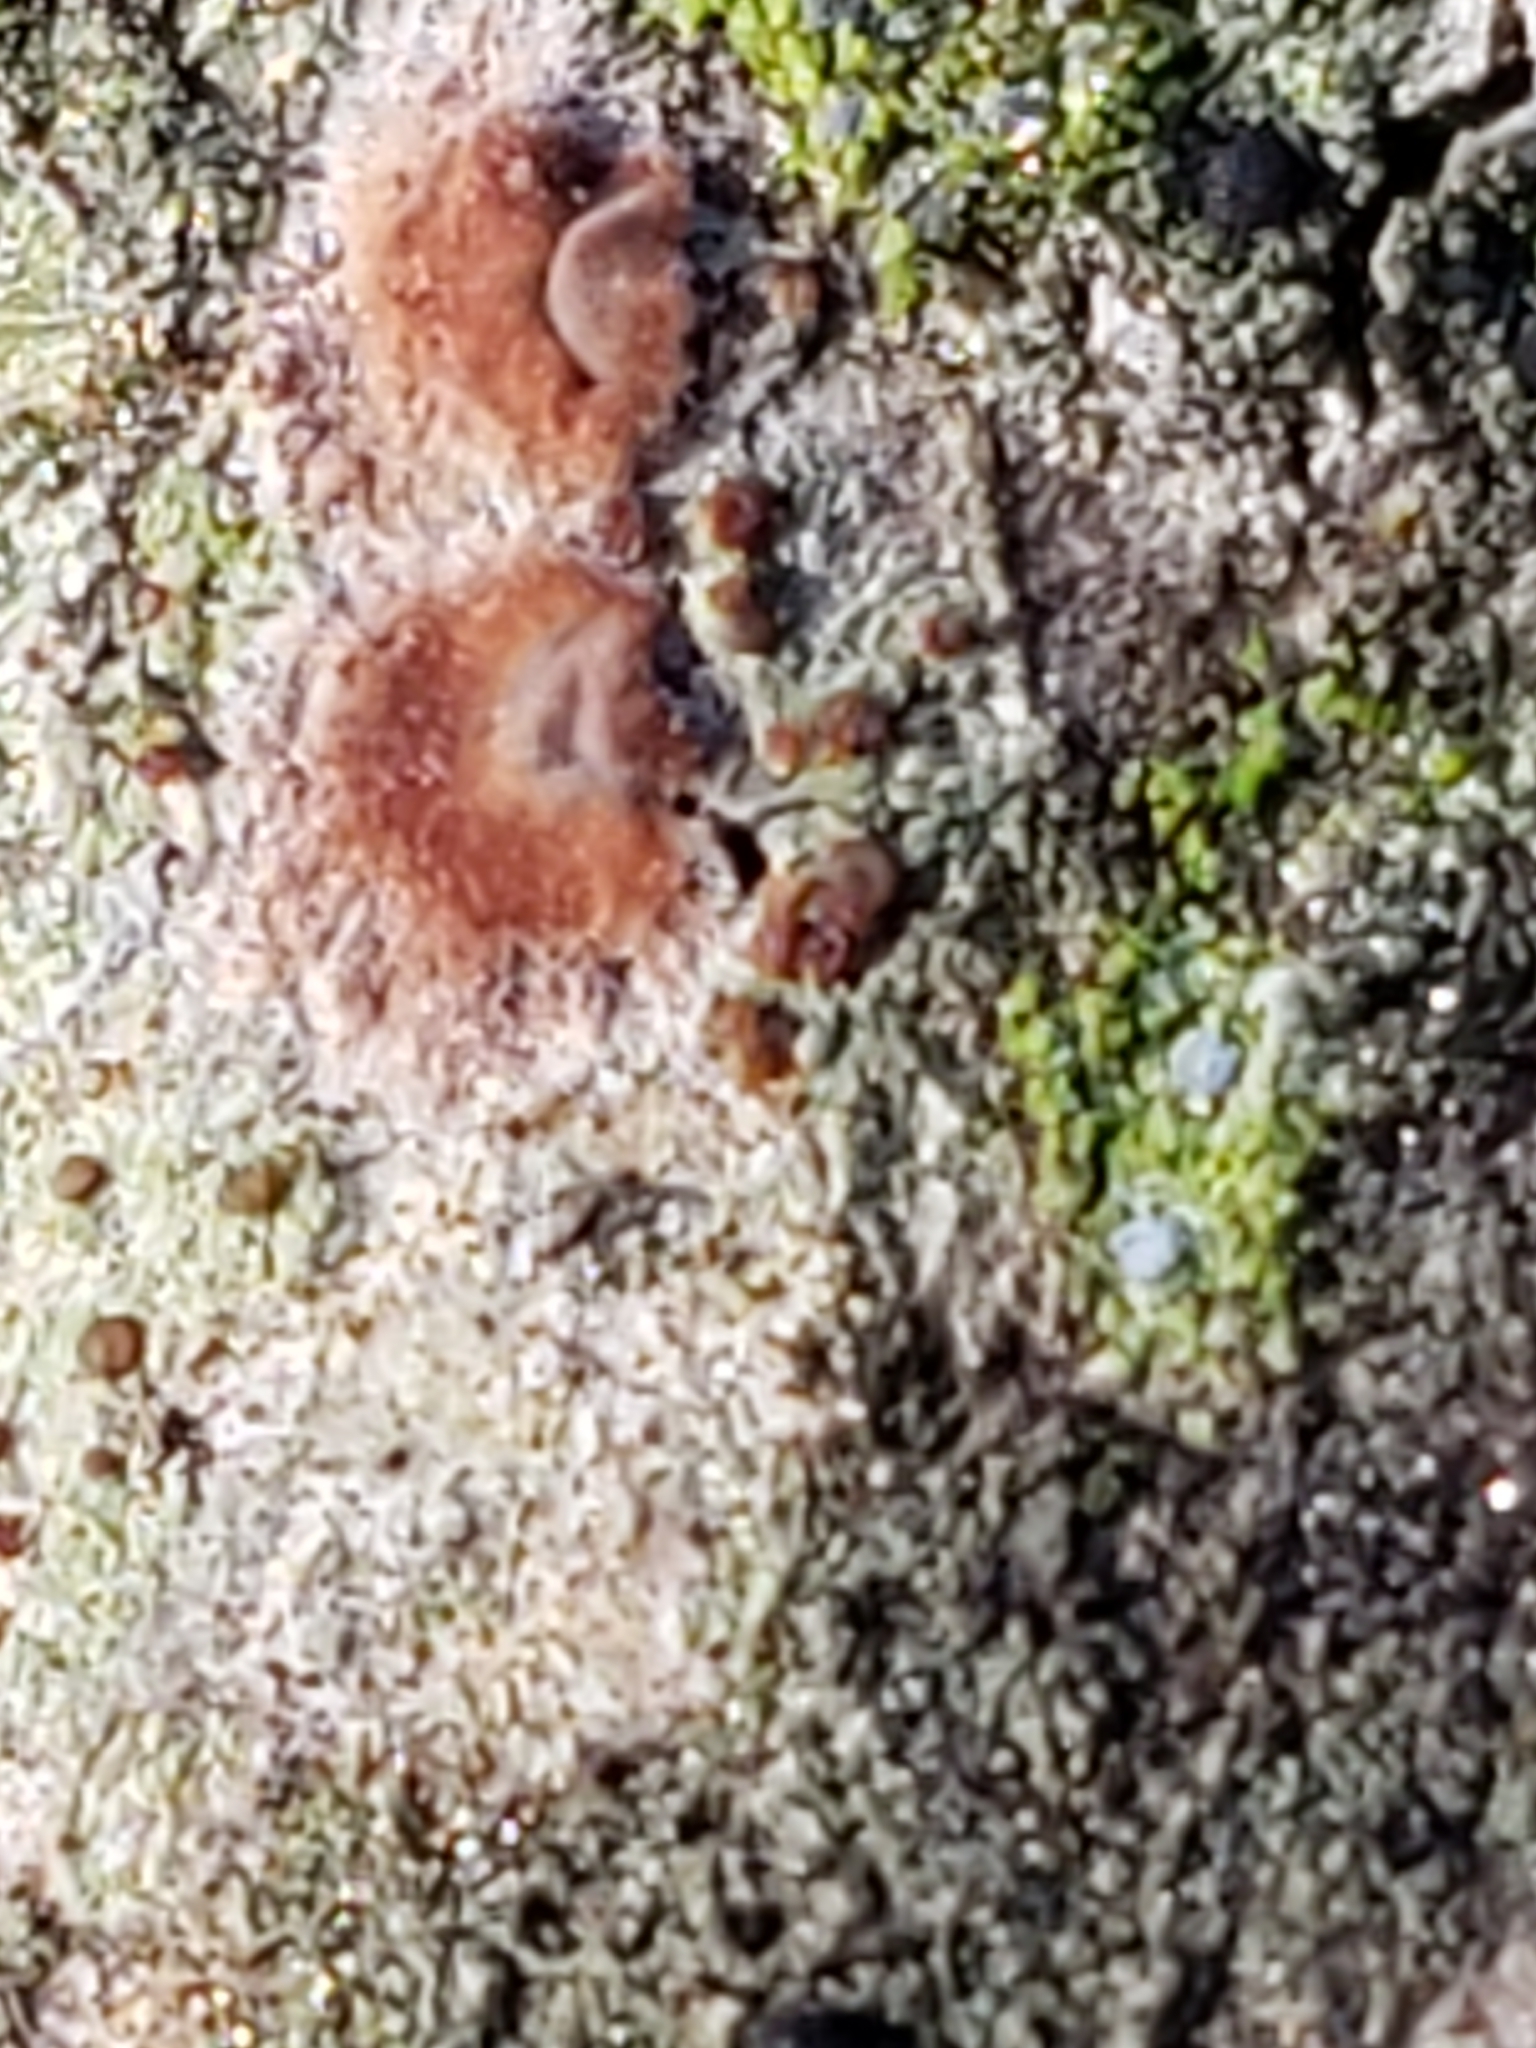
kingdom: Fungi
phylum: Ascomycota
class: Lecanoromycetes
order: Lecanorales
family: Lecanoraceae
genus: Traponora
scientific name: Traponora varians
